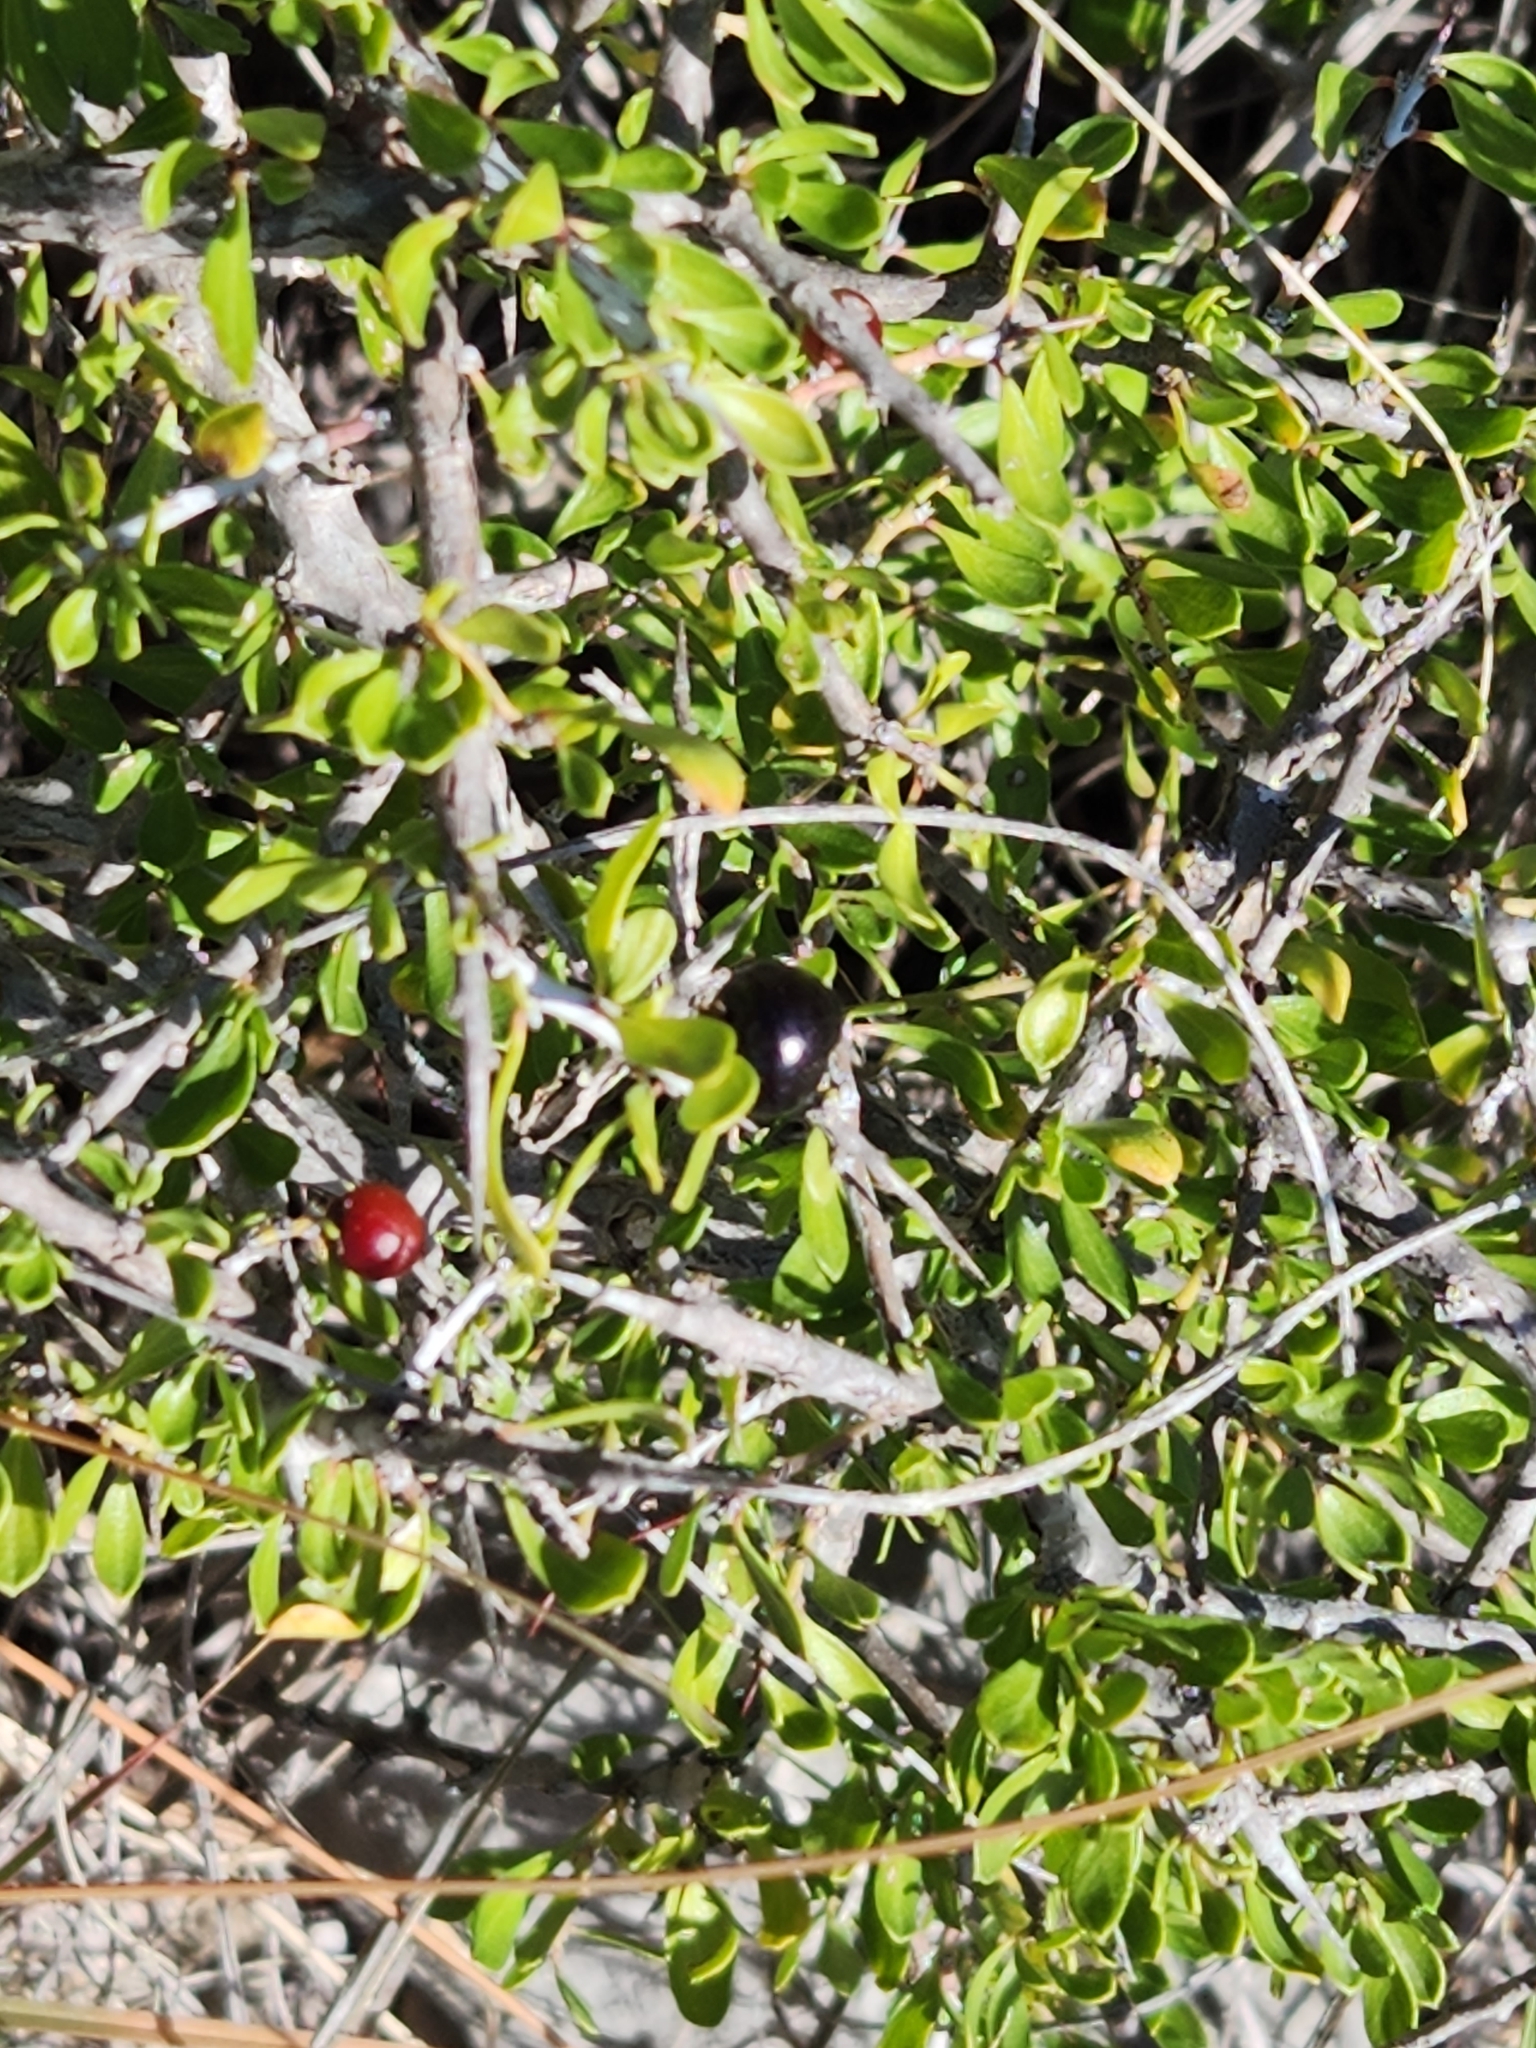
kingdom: Plantae
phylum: Tracheophyta
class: Magnoliopsida
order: Rosales
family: Rhamnaceae
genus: Condalia
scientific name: Condalia viridis
